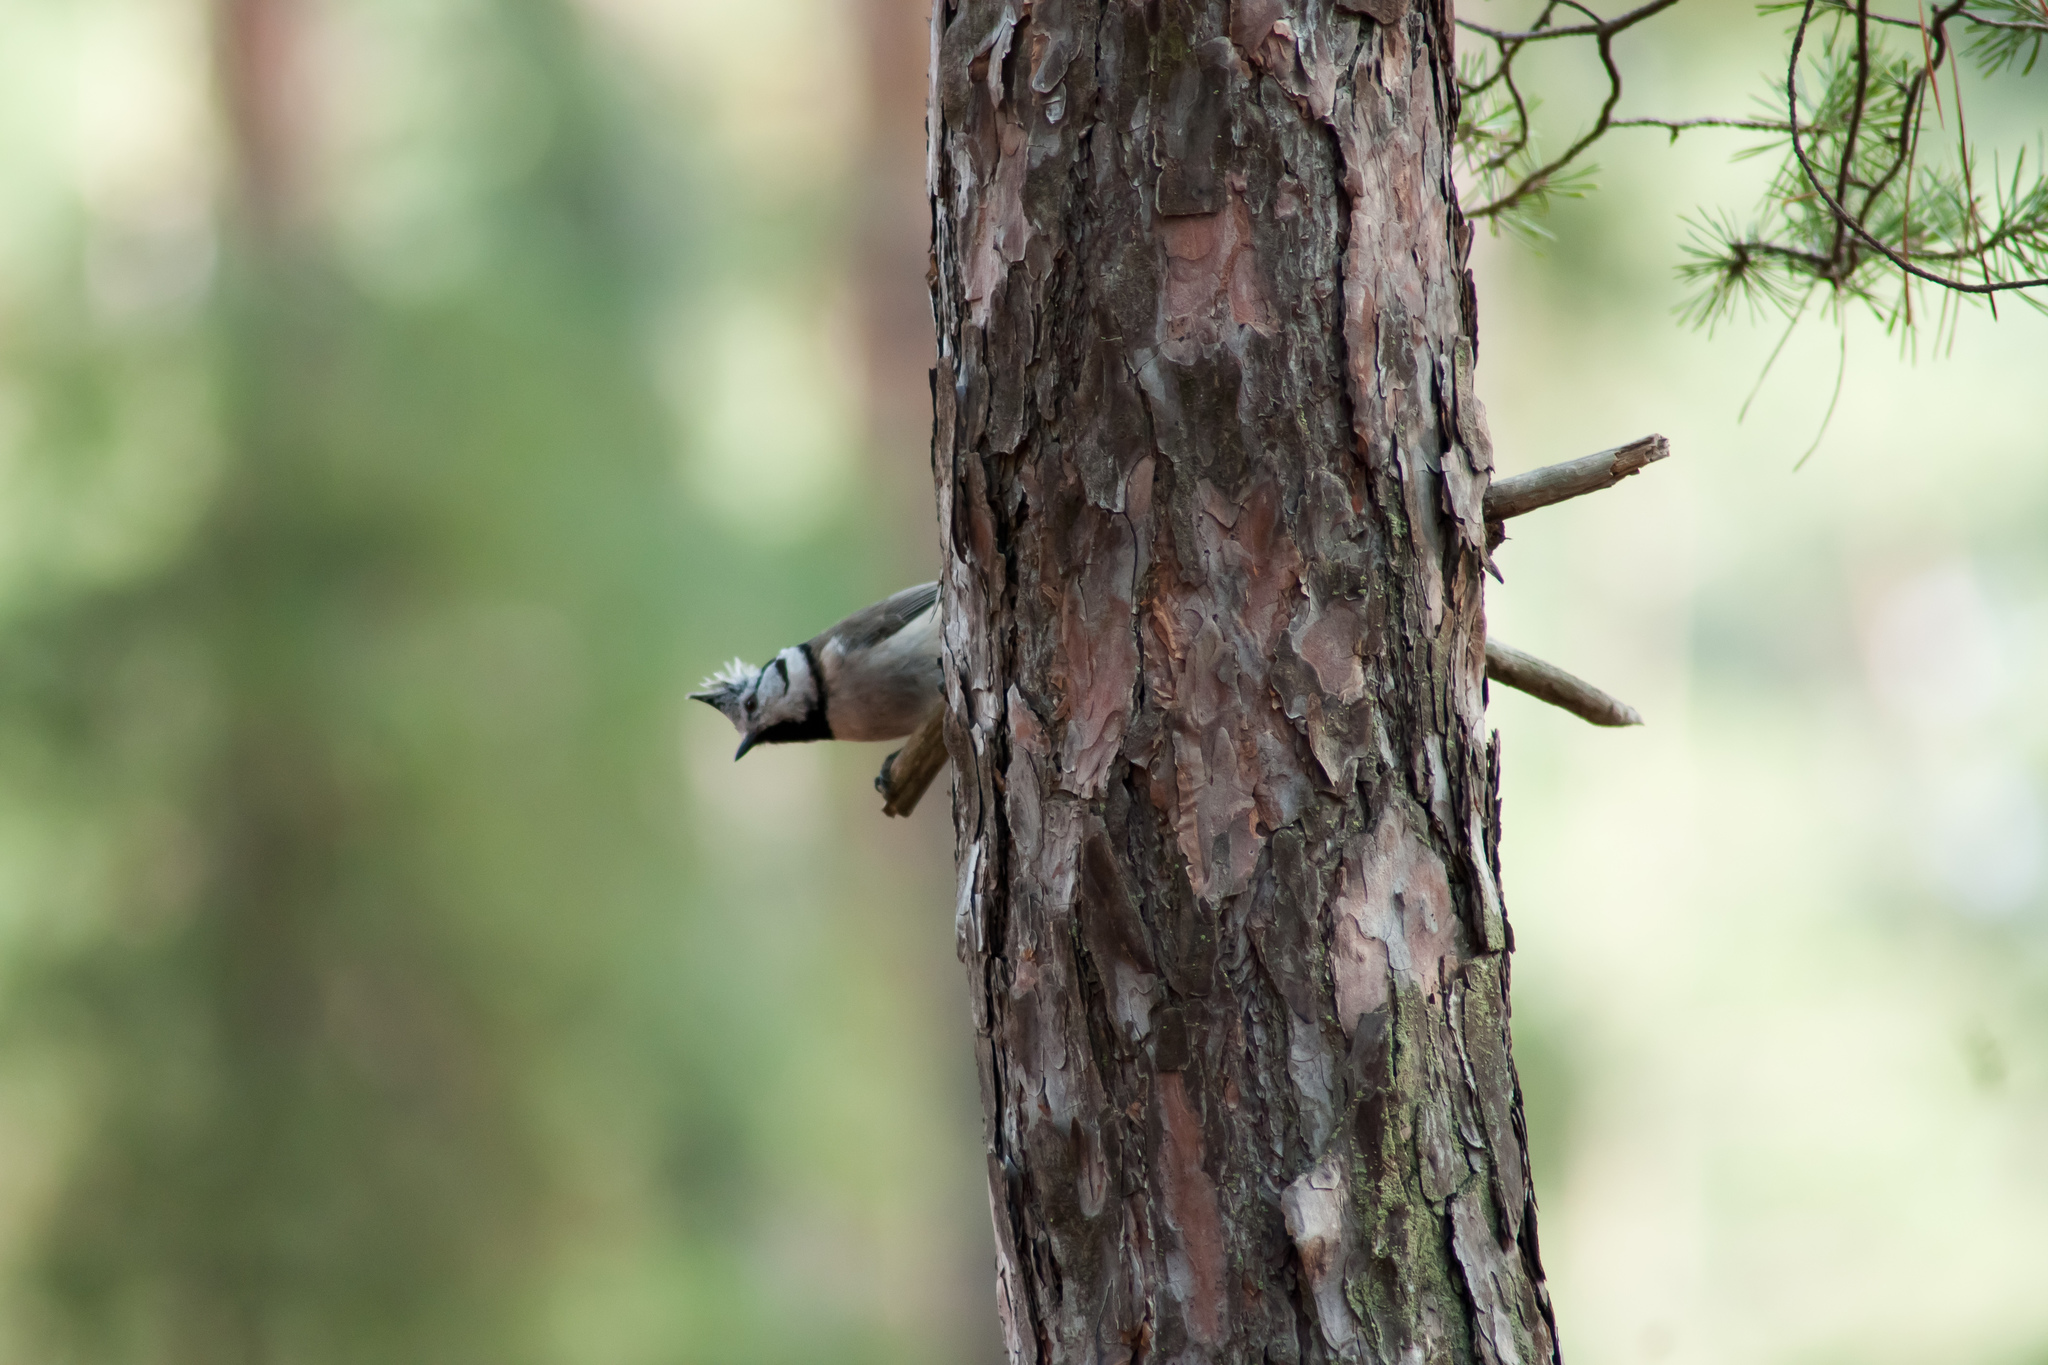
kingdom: Animalia
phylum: Chordata
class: Aves
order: Passeriformes
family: Paridae
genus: Lophophanes
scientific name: Lophophanes cristatus
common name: European crested tit
